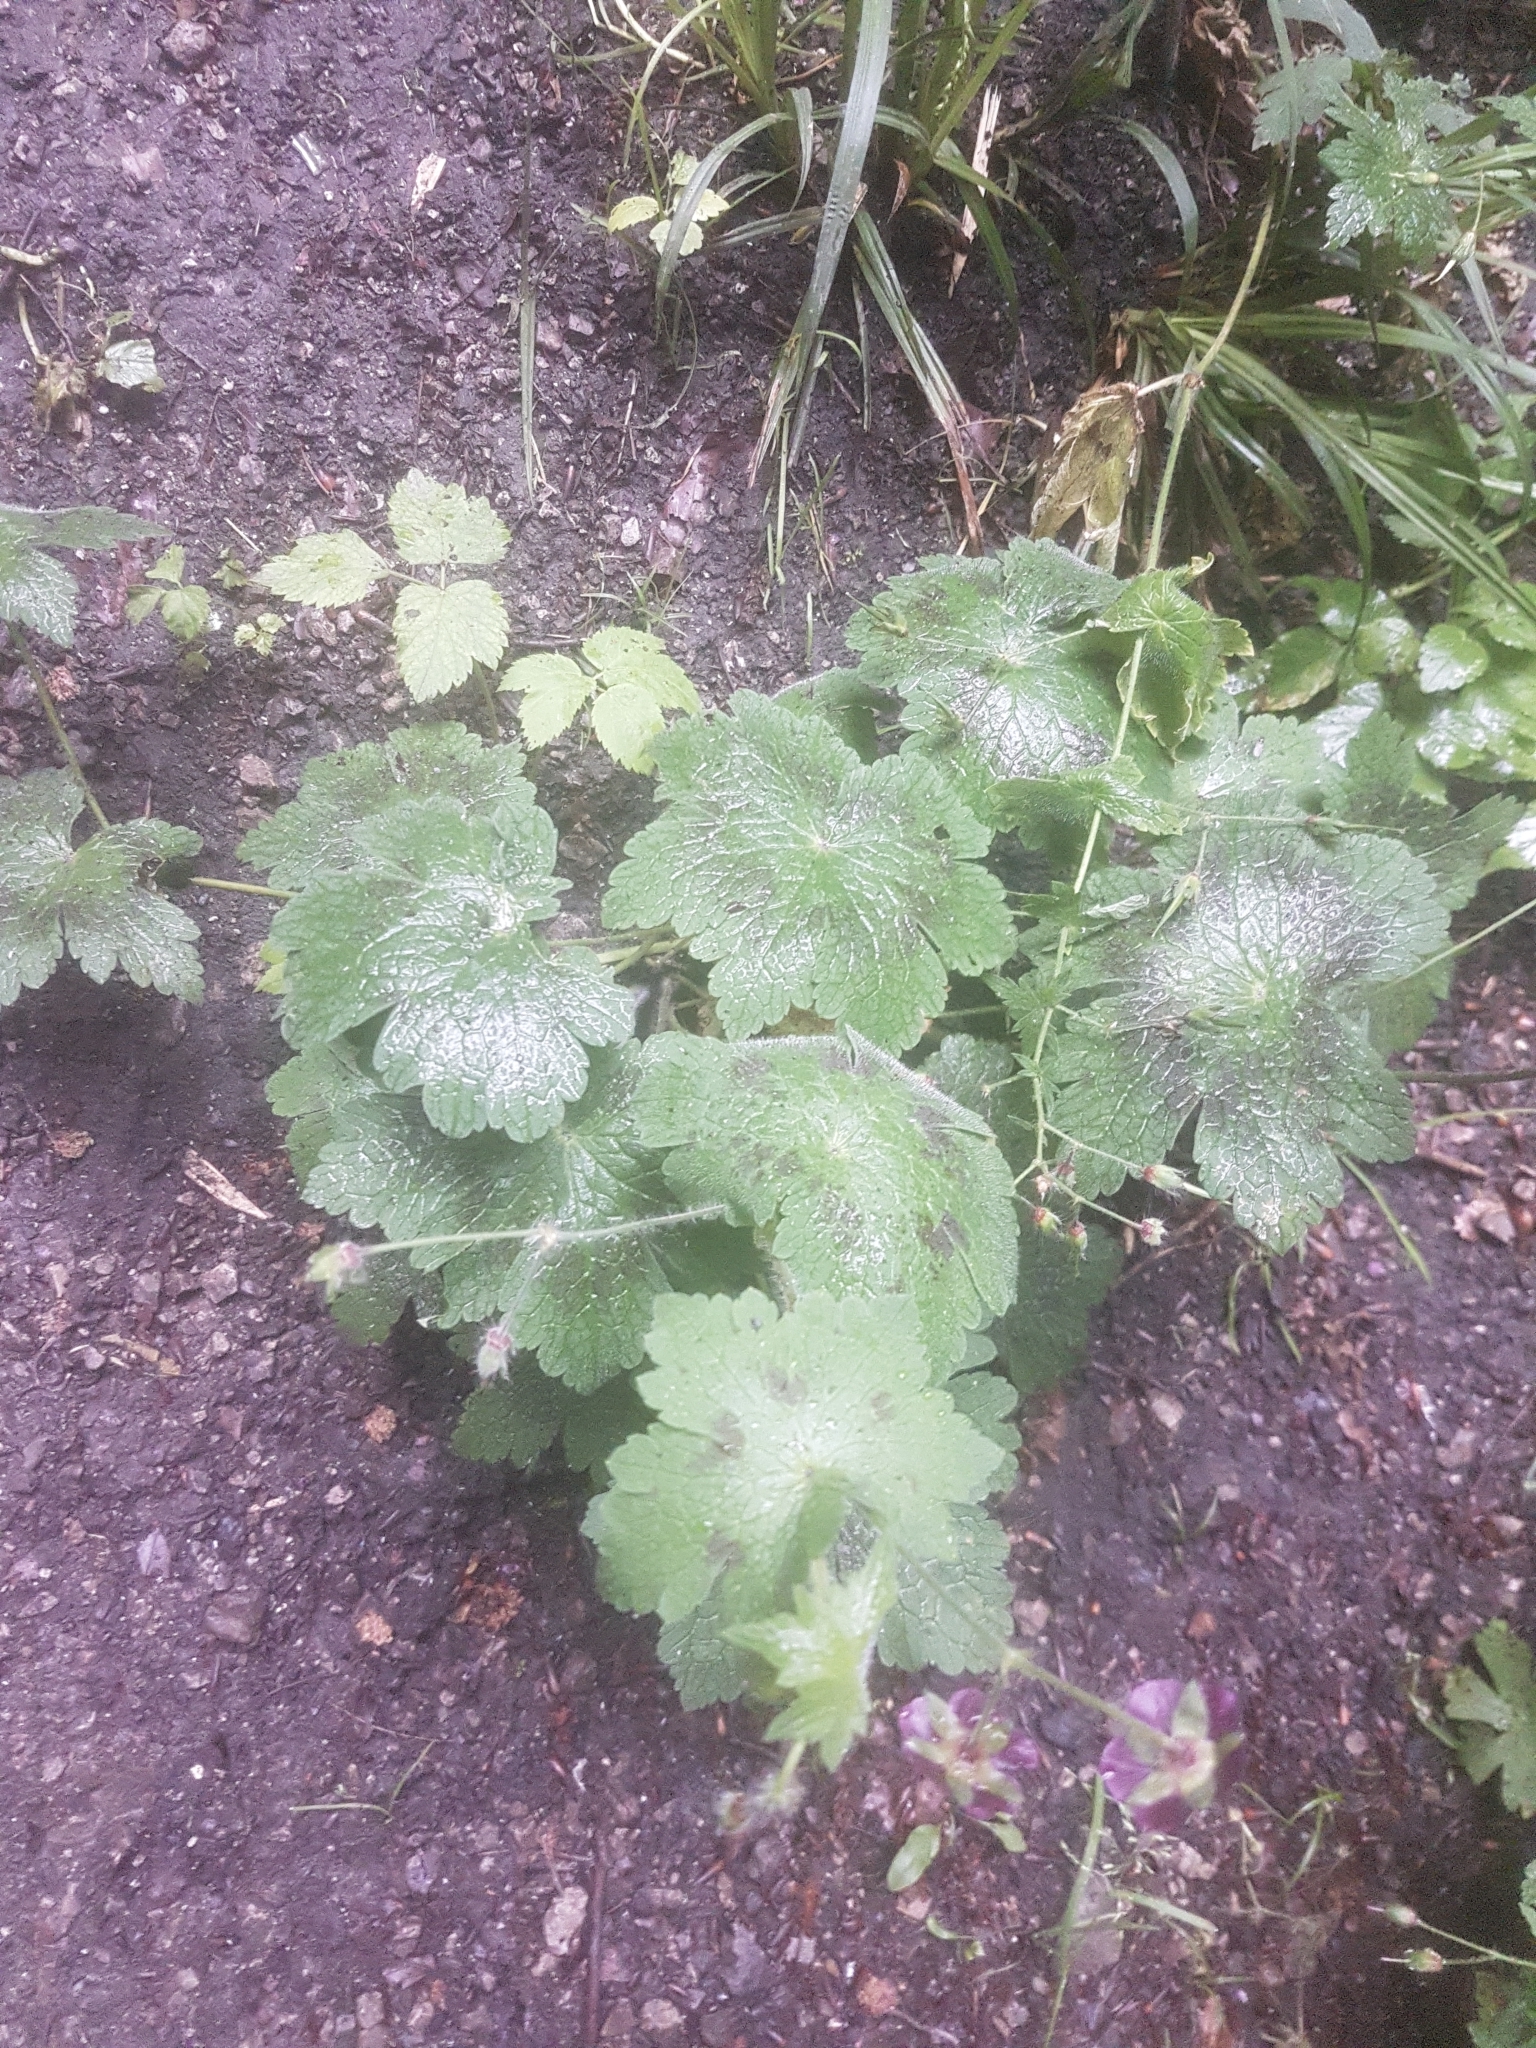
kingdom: Plantae
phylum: Tracheophyta
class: Magnoliopsida
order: Geraniales
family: Geraniaceae
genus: Geranium
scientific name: Geranium phaeum
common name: Dusky crane's-bill
